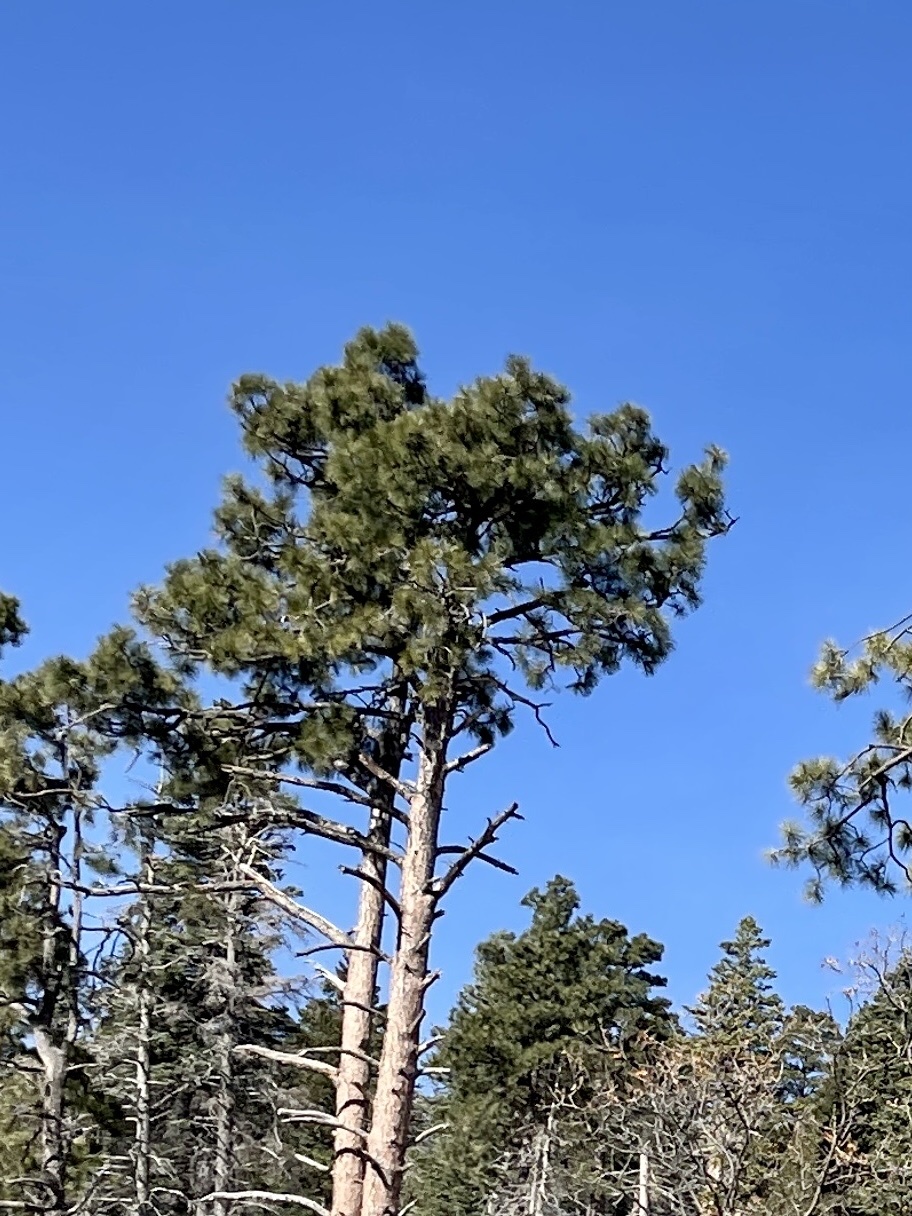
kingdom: Plantae
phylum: Tracheophyta
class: Pinopsida
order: Pinales
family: Pinaceae
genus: Pinus
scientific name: Pinus ponderosa
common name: Western yellow-pine
